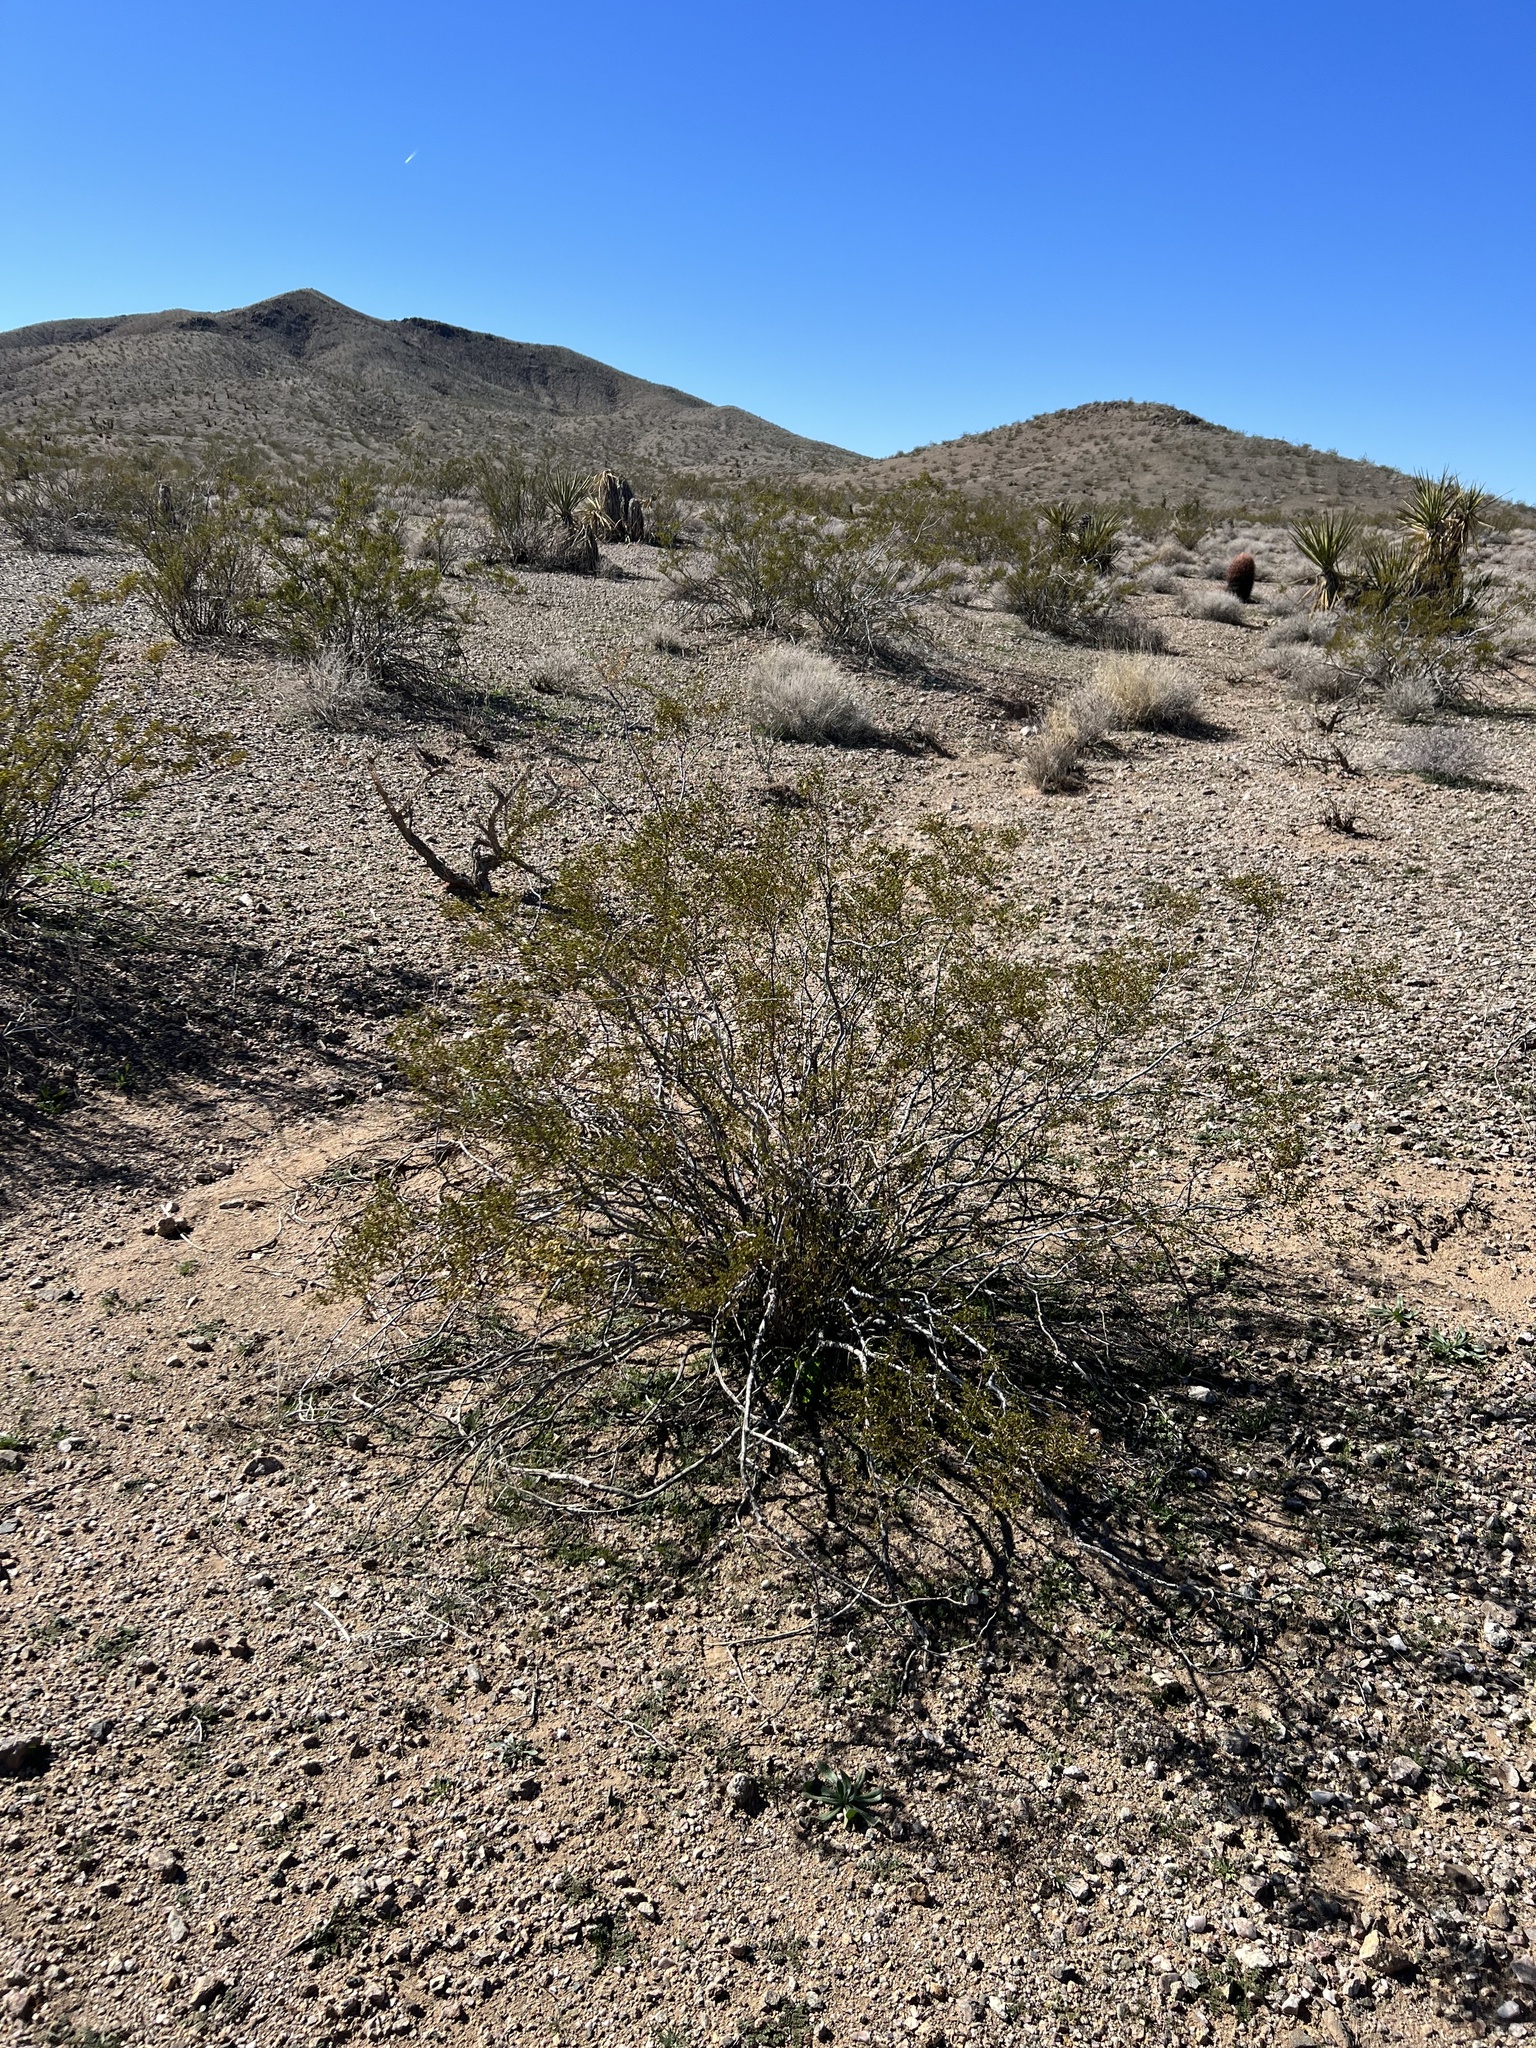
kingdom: Plantae
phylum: Tracheophyta
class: Magnoliopsida
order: Zygophyllales
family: Zygophyllaceae
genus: Larrea
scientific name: Larrea tridentata
